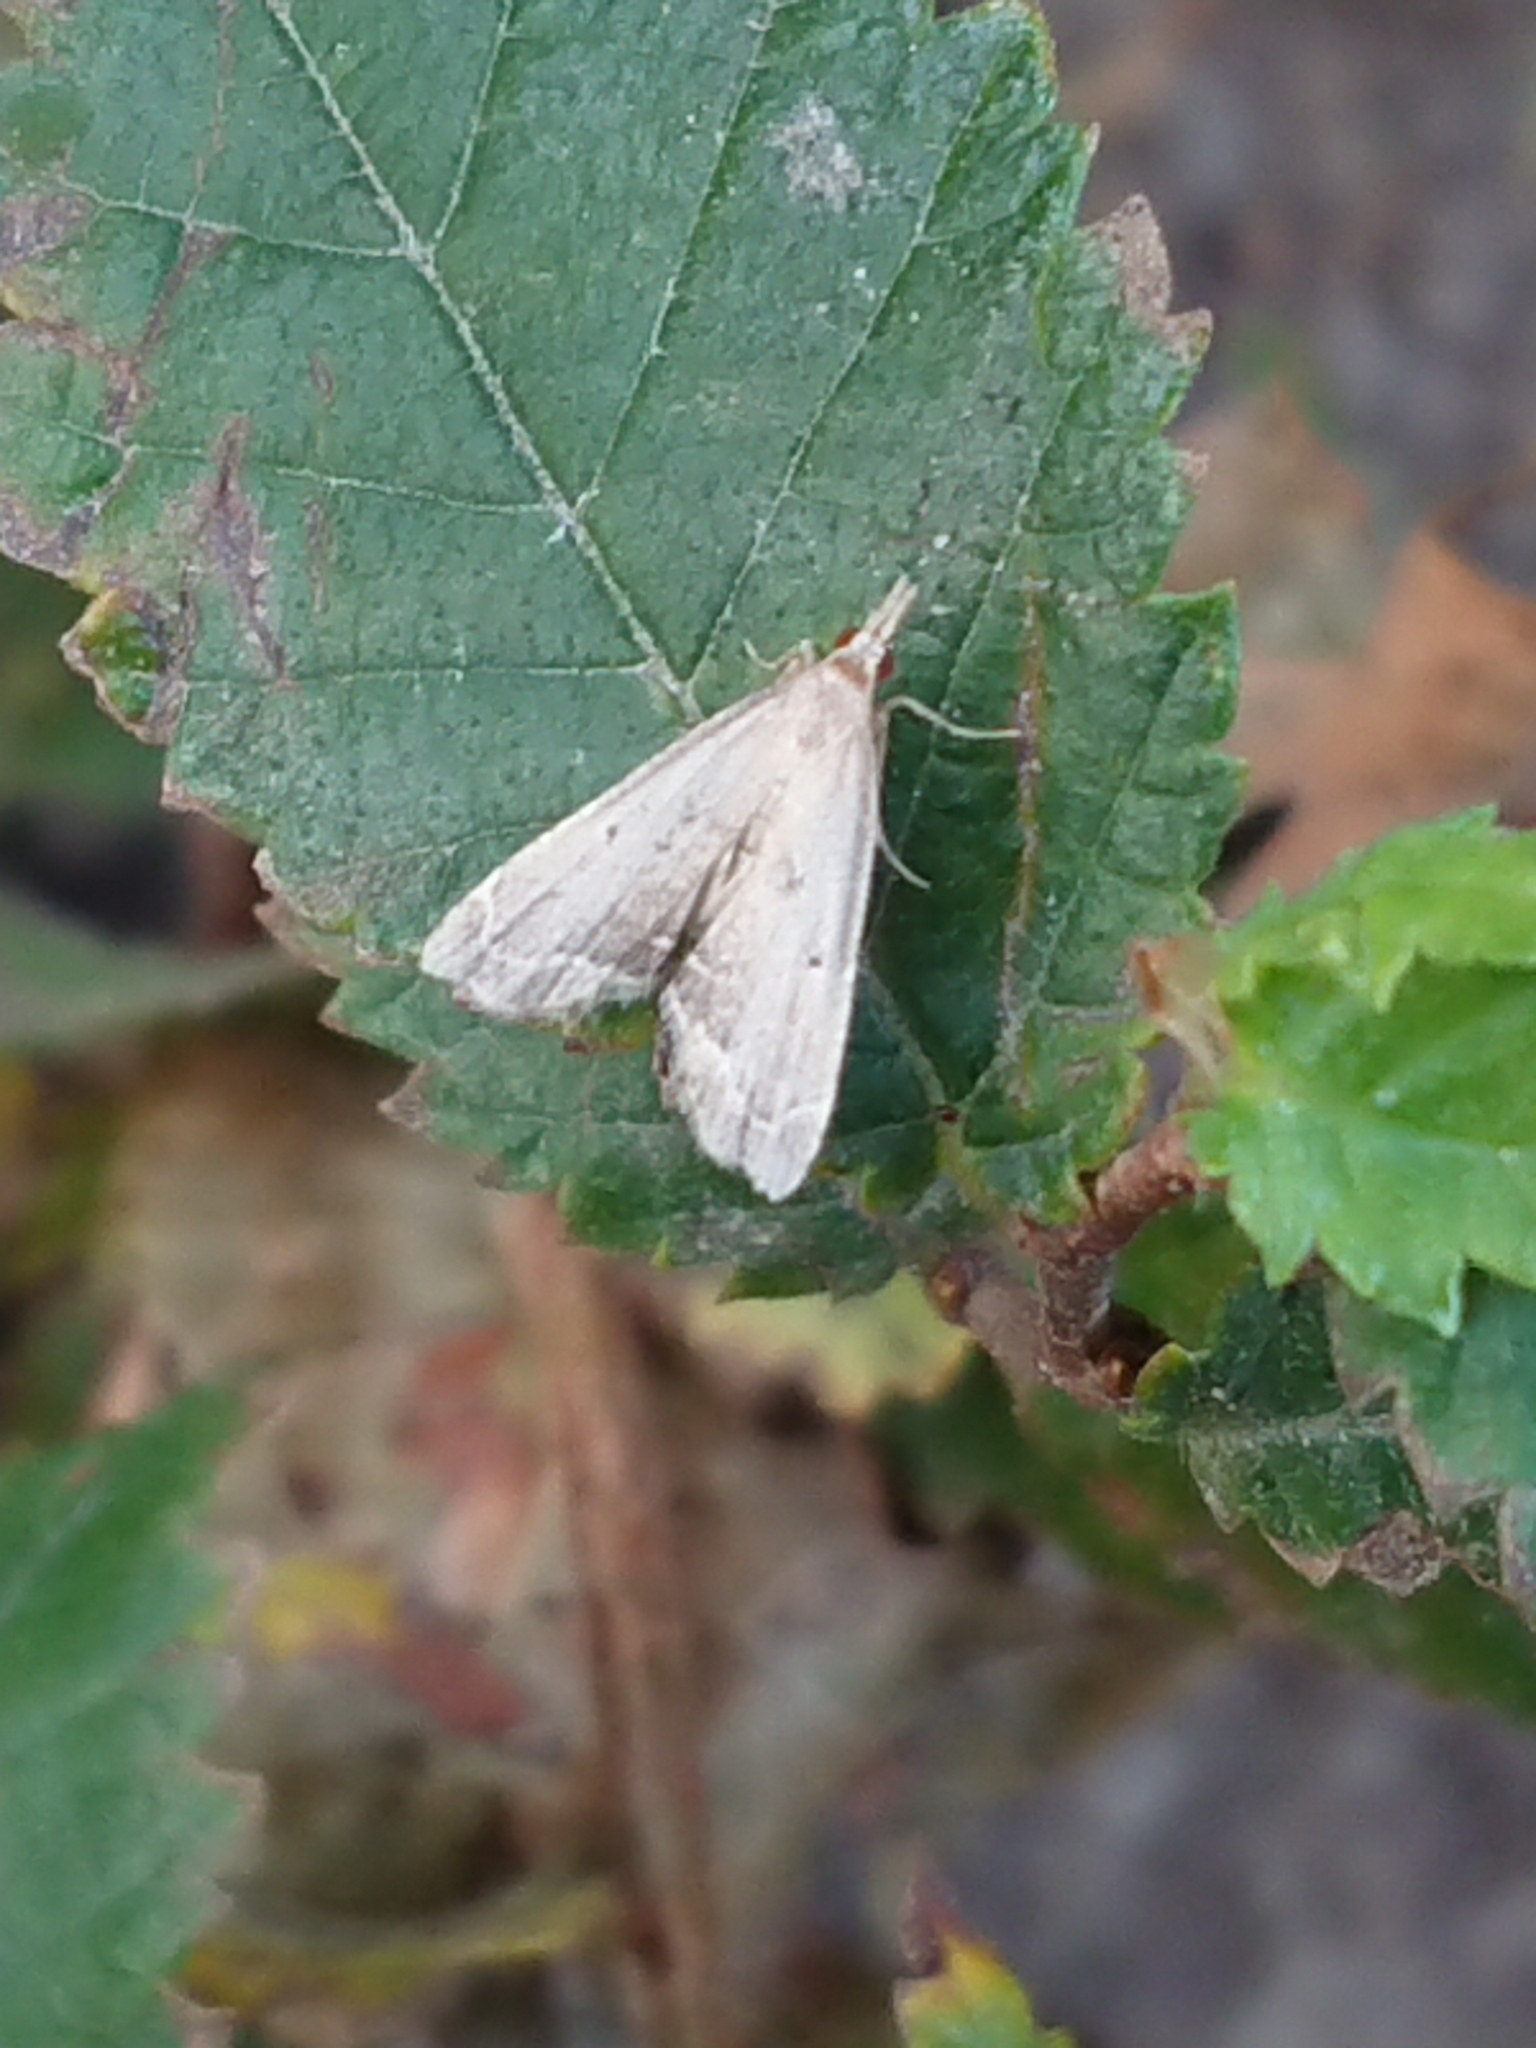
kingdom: Animalia
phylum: Arthropoda
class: Insecta
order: Lepidoptera
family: Crambidae
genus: Diplopseustis
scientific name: Diplopseustis perieresalis
